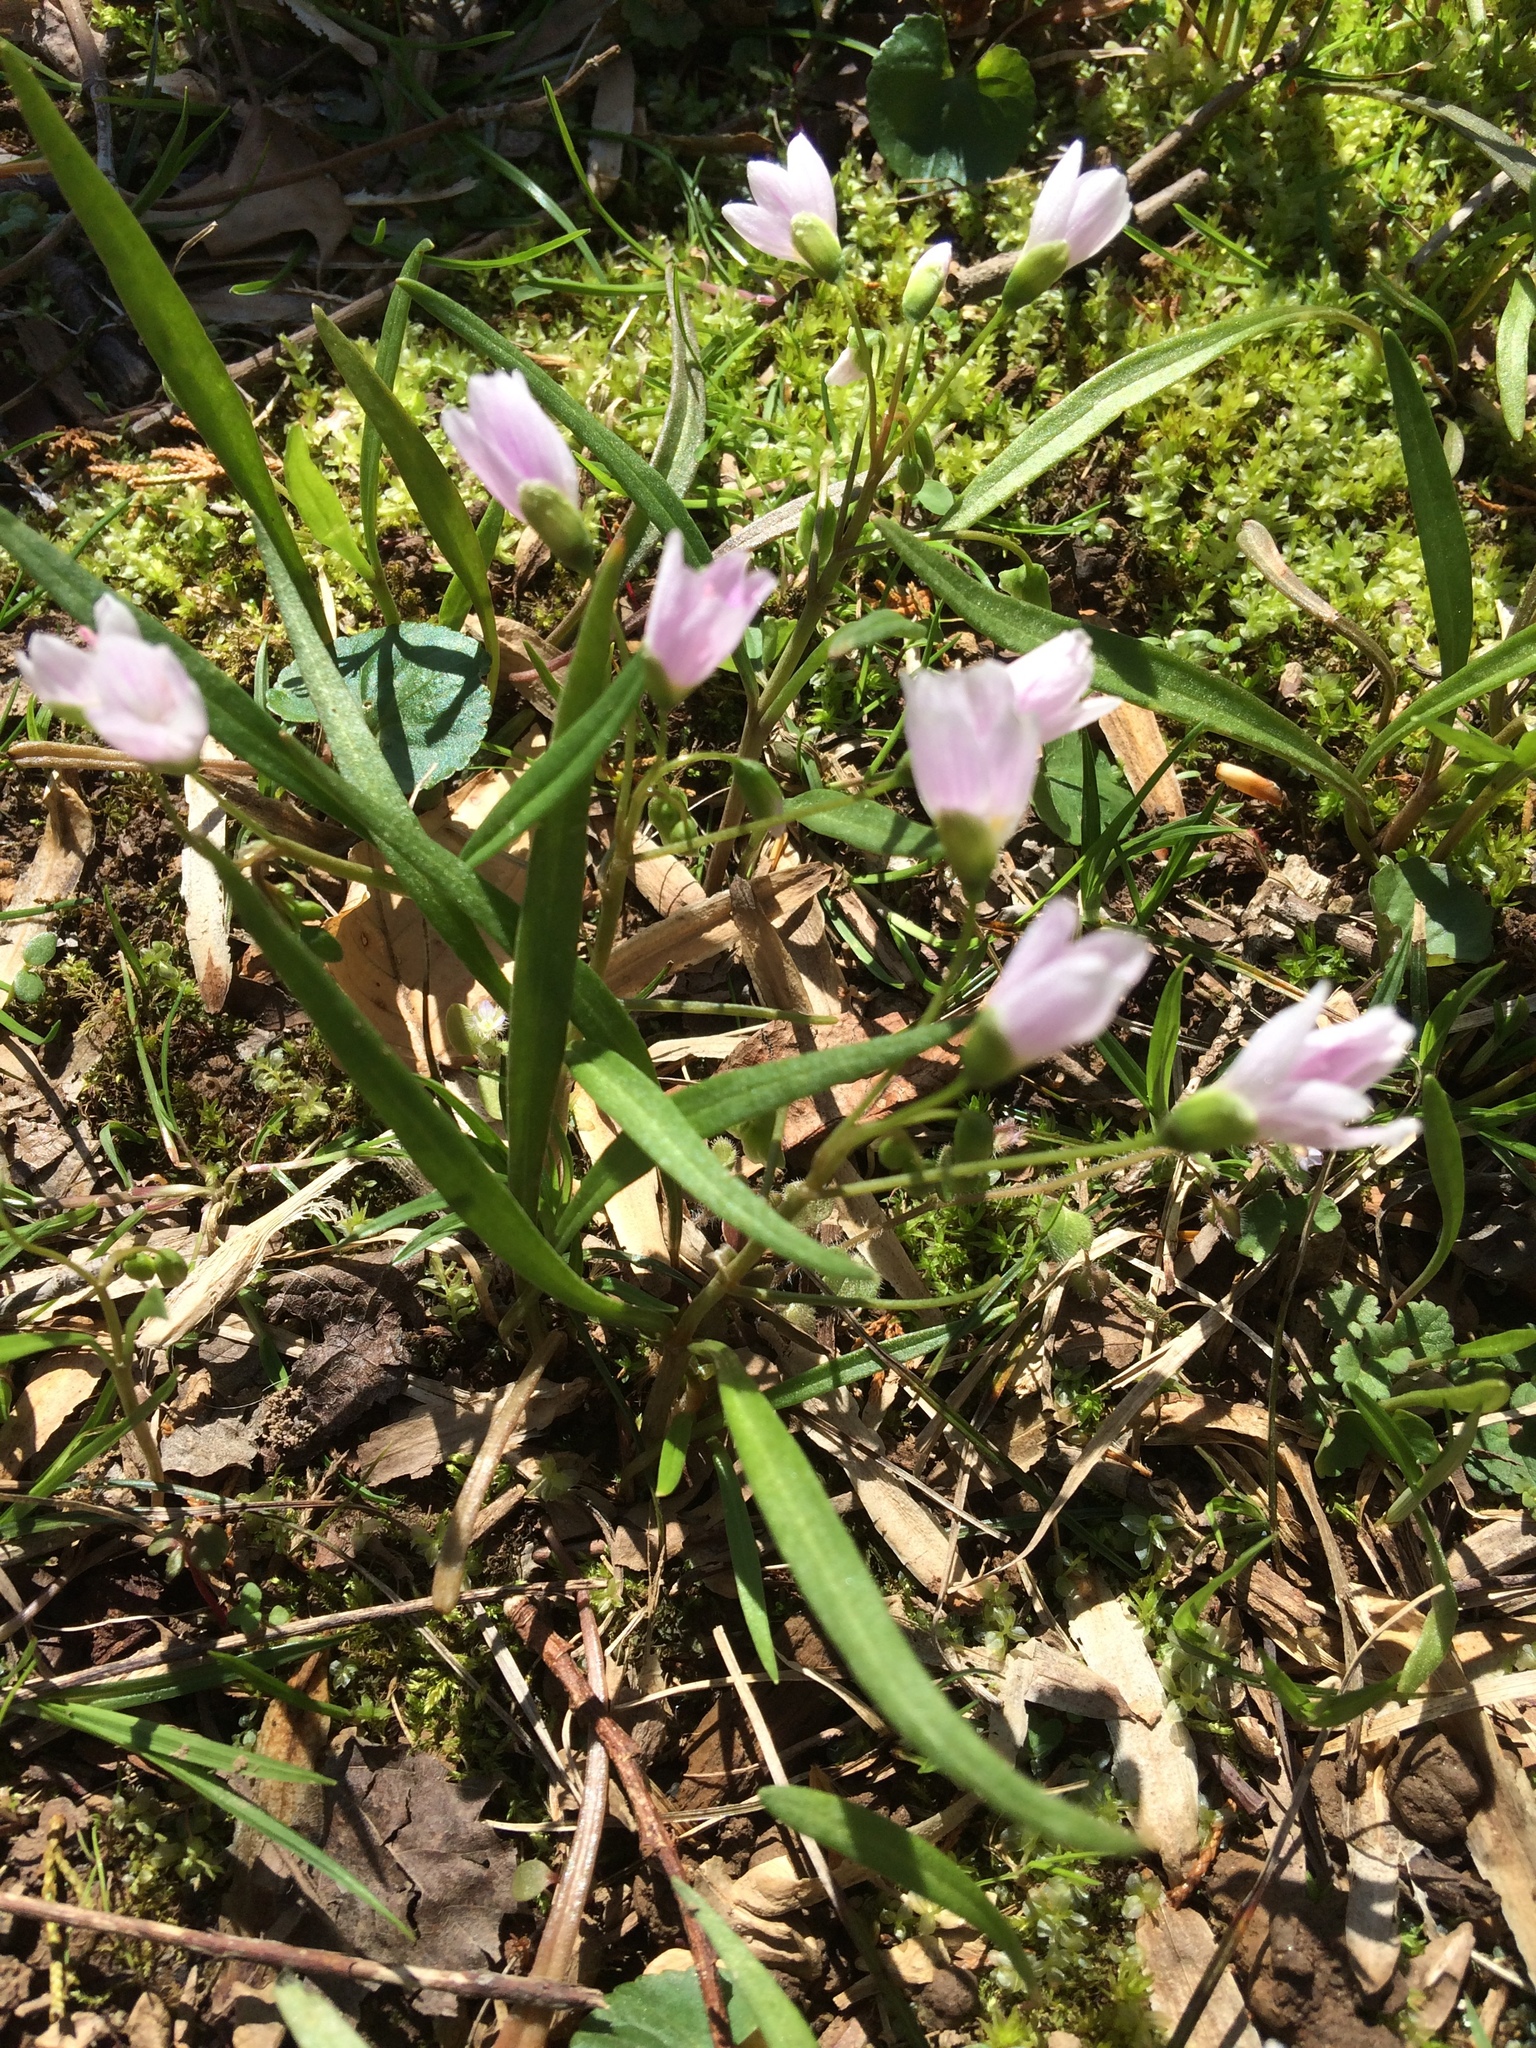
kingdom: Plantae
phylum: Tracheophyta
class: Magnoliopsida
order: Caryophyllales
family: Montiaceae
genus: Claytonia
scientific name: Claytonia virginica
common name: Virginia springbeauty
